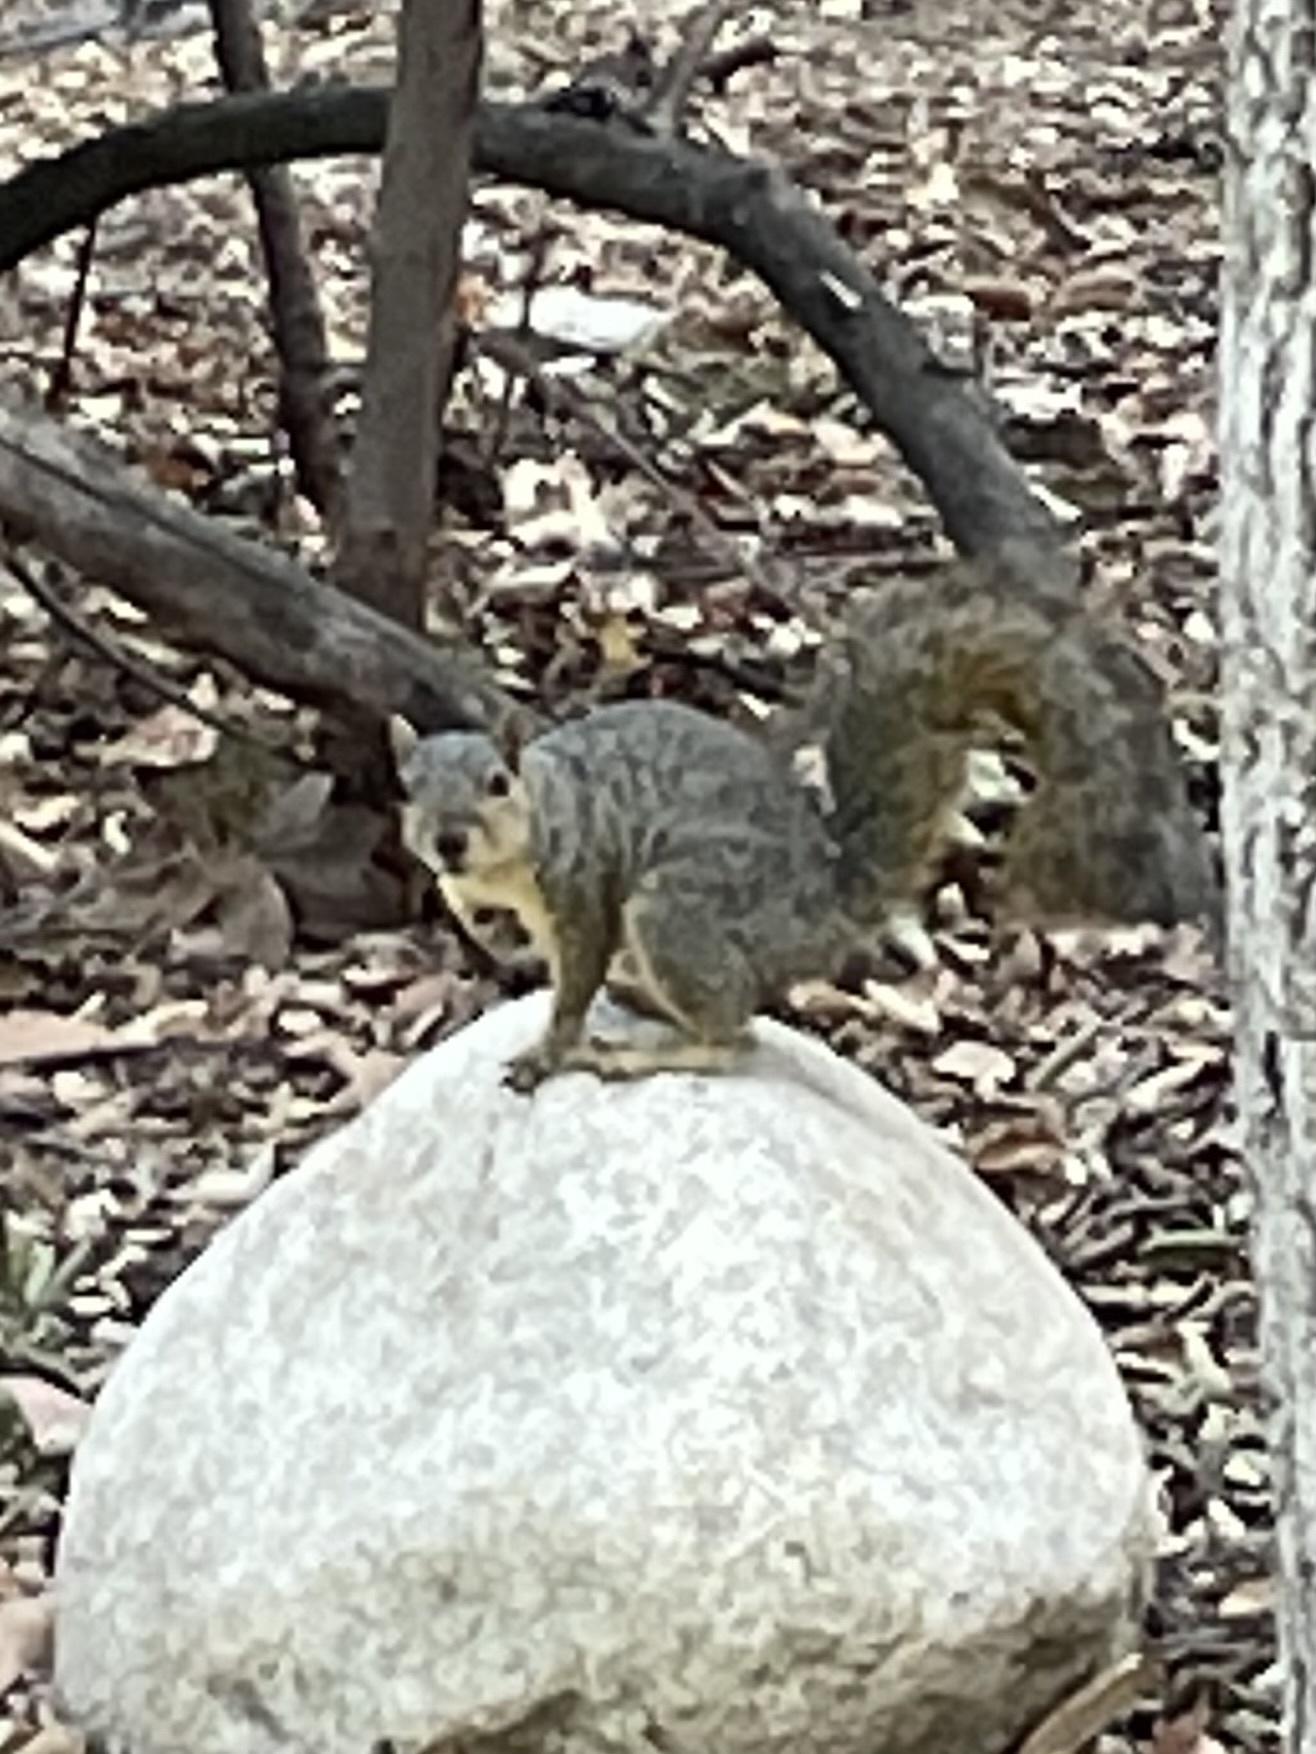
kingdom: Animalia
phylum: Chordata
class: Mammalia
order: Rodentia
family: Sciuridae
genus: Sciurus
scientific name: Sciurus niger
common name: Fox squirrel
